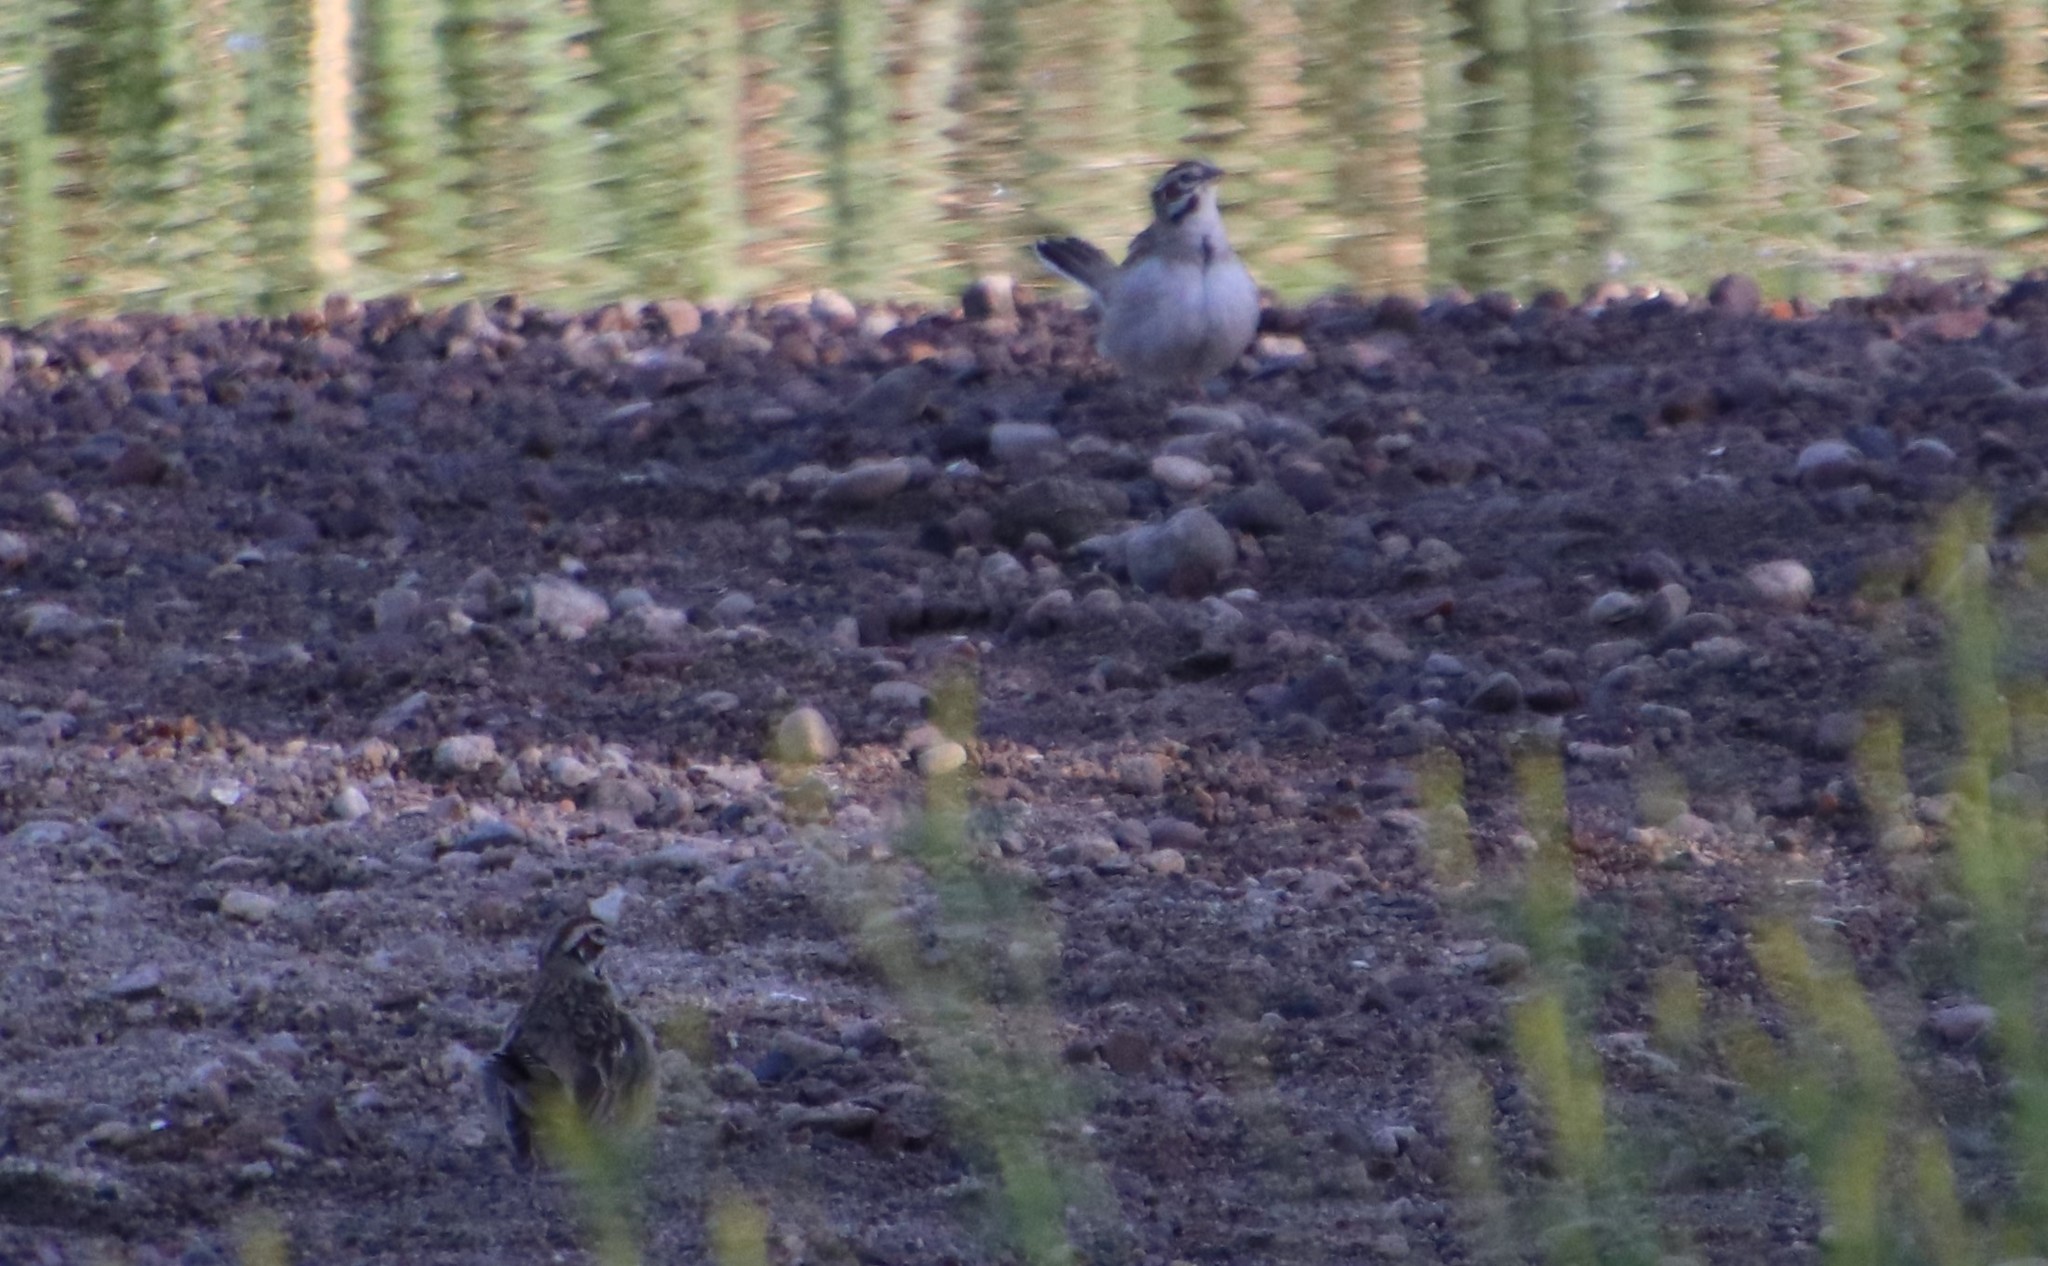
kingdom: Animalia
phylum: Chordata
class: Aves
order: Passeriformes
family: Passerellidae
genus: Chondestes
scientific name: Chondestes grammacus
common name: Lark sparrow
